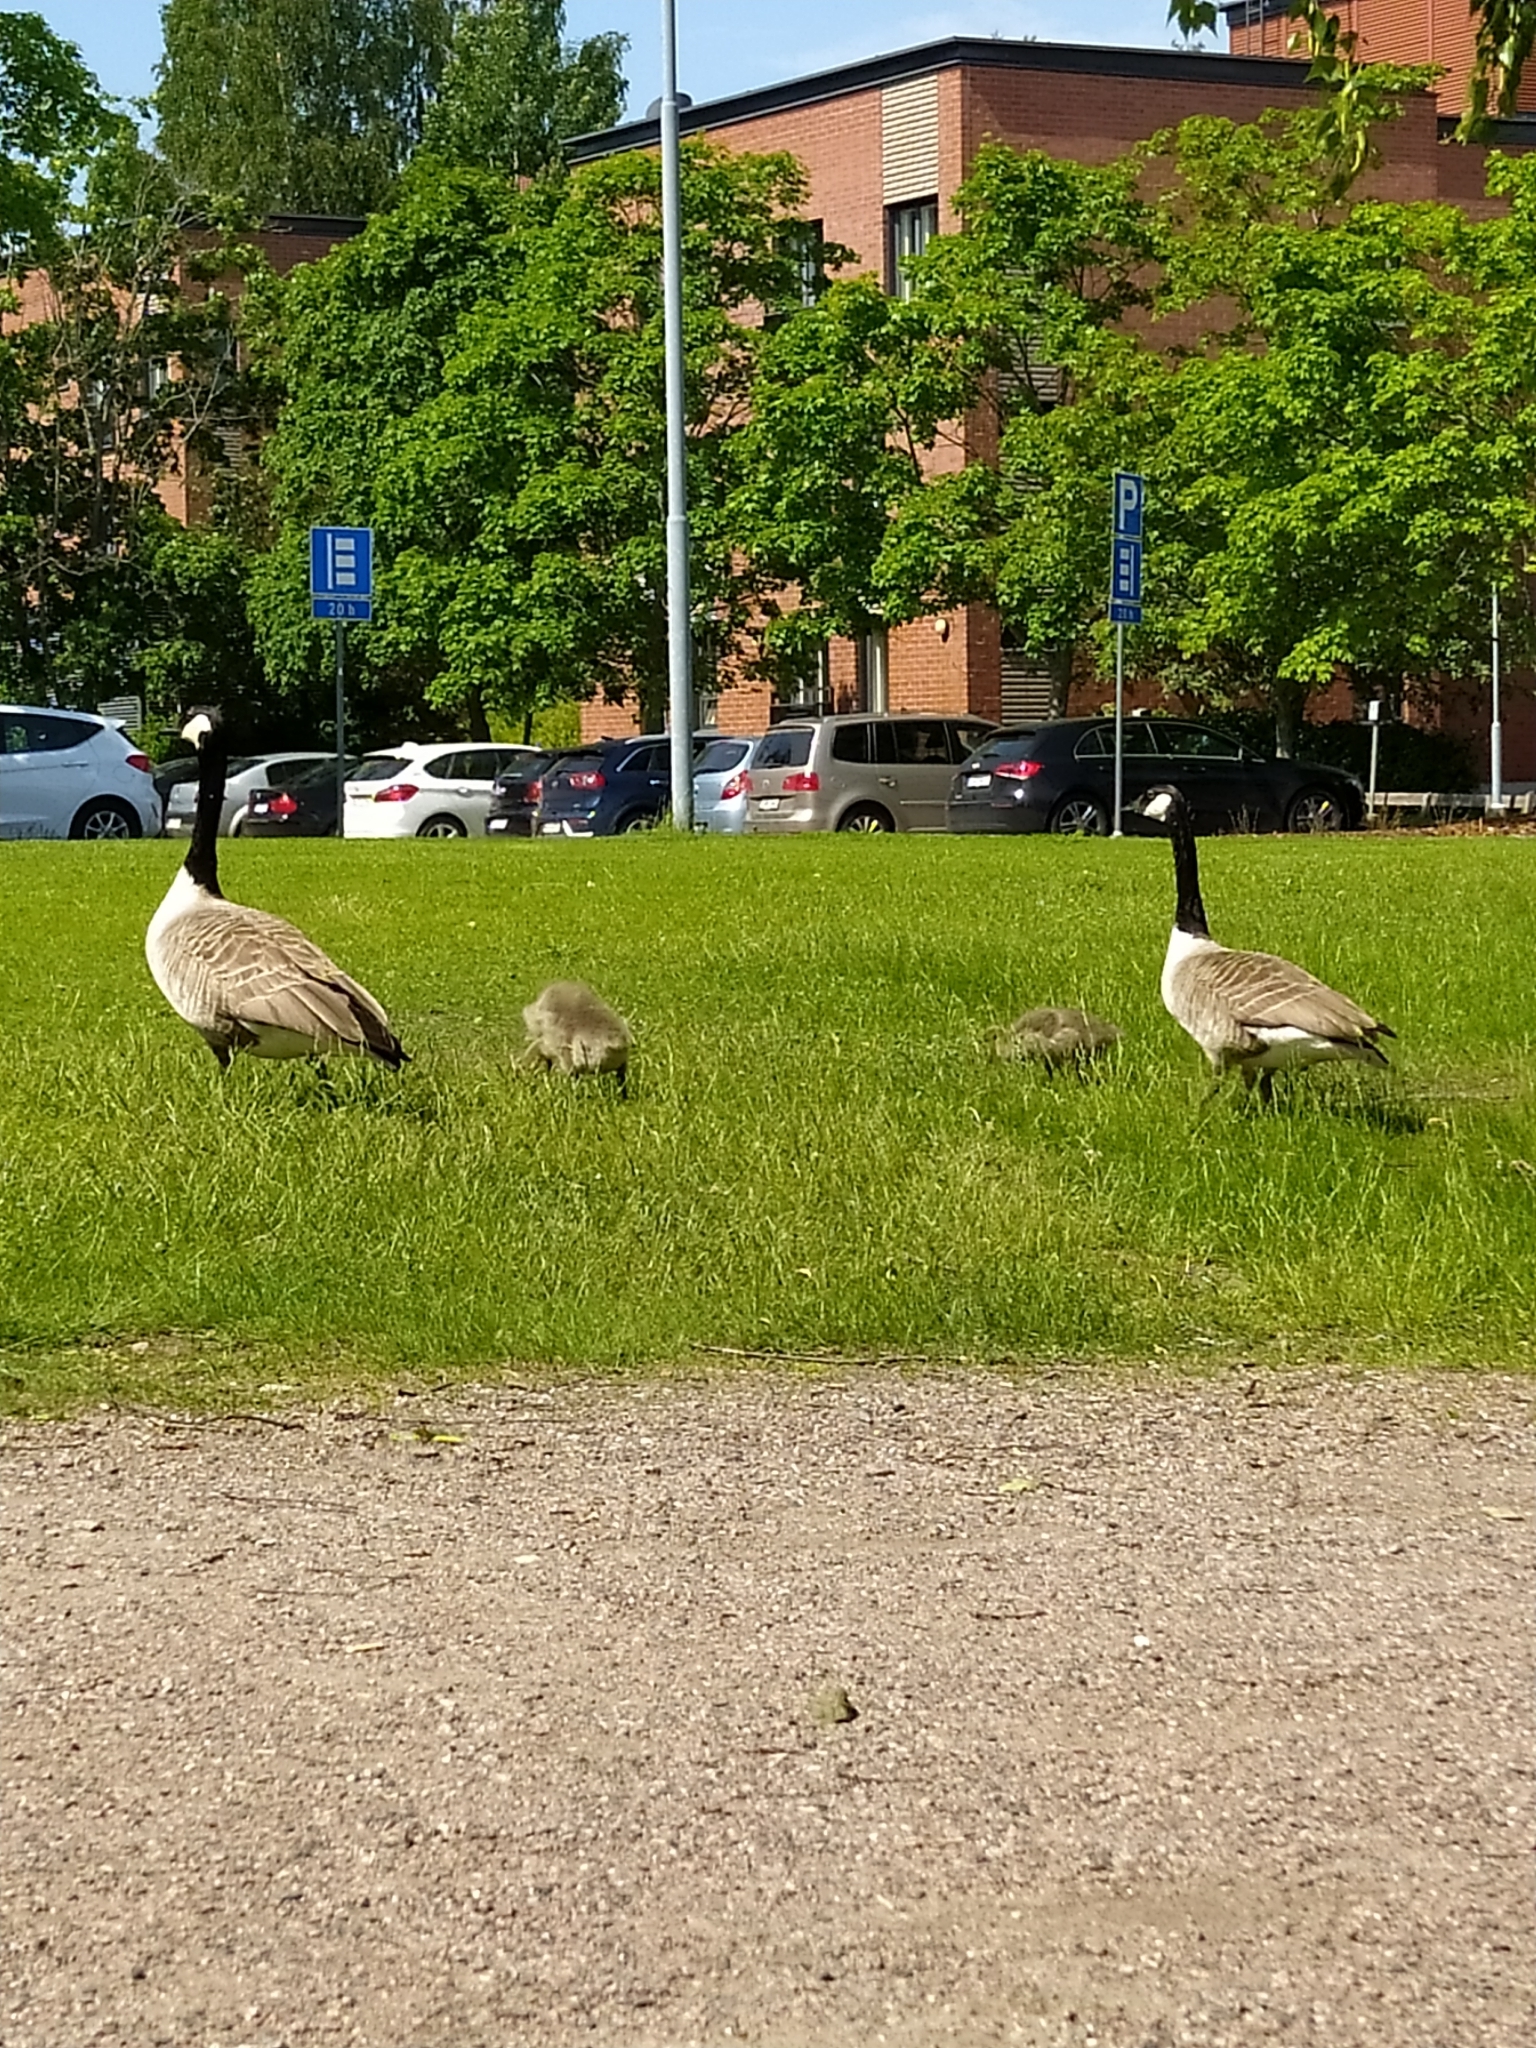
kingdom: Animalia
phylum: Chordata
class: Aves
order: Anseriformes
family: Anatidae
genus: Branta
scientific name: Branta canadensis
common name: Canada goose
